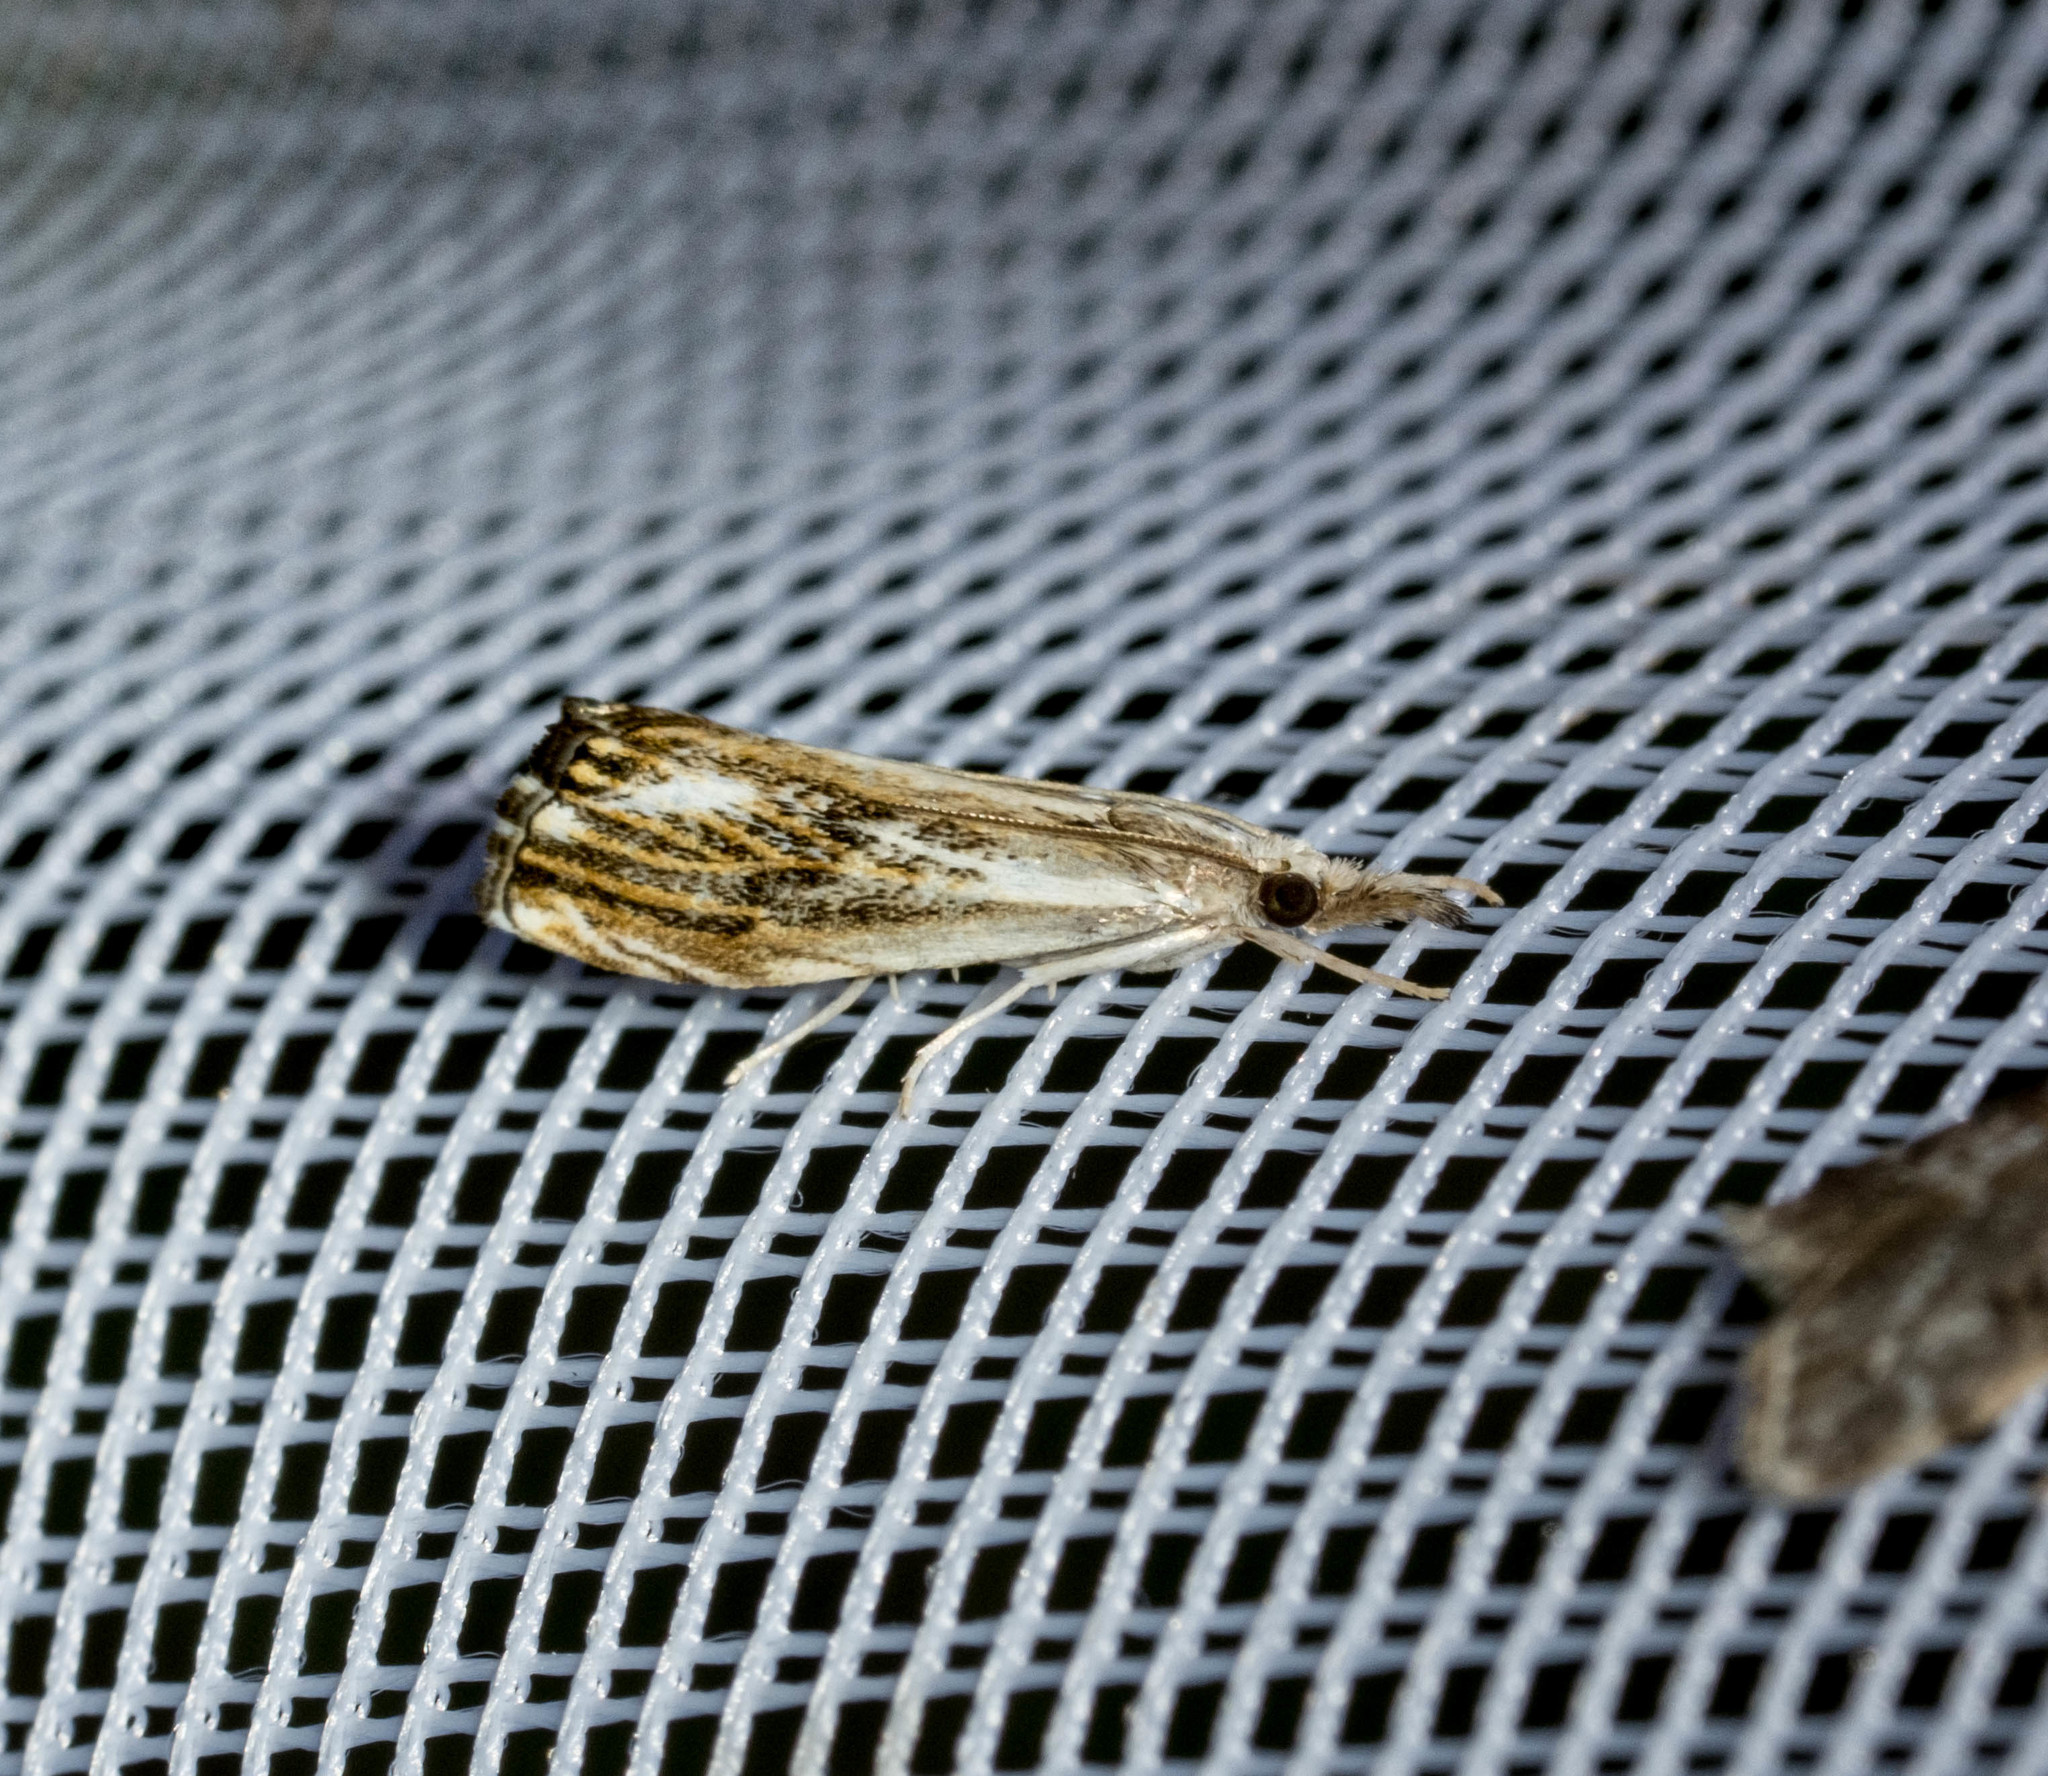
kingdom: Animalia
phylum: Arthropoda
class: Insecta
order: Lepidoptera
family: Crambidae
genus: Catoptria
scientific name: Catoptria verellus
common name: Marbled grass-veneer
